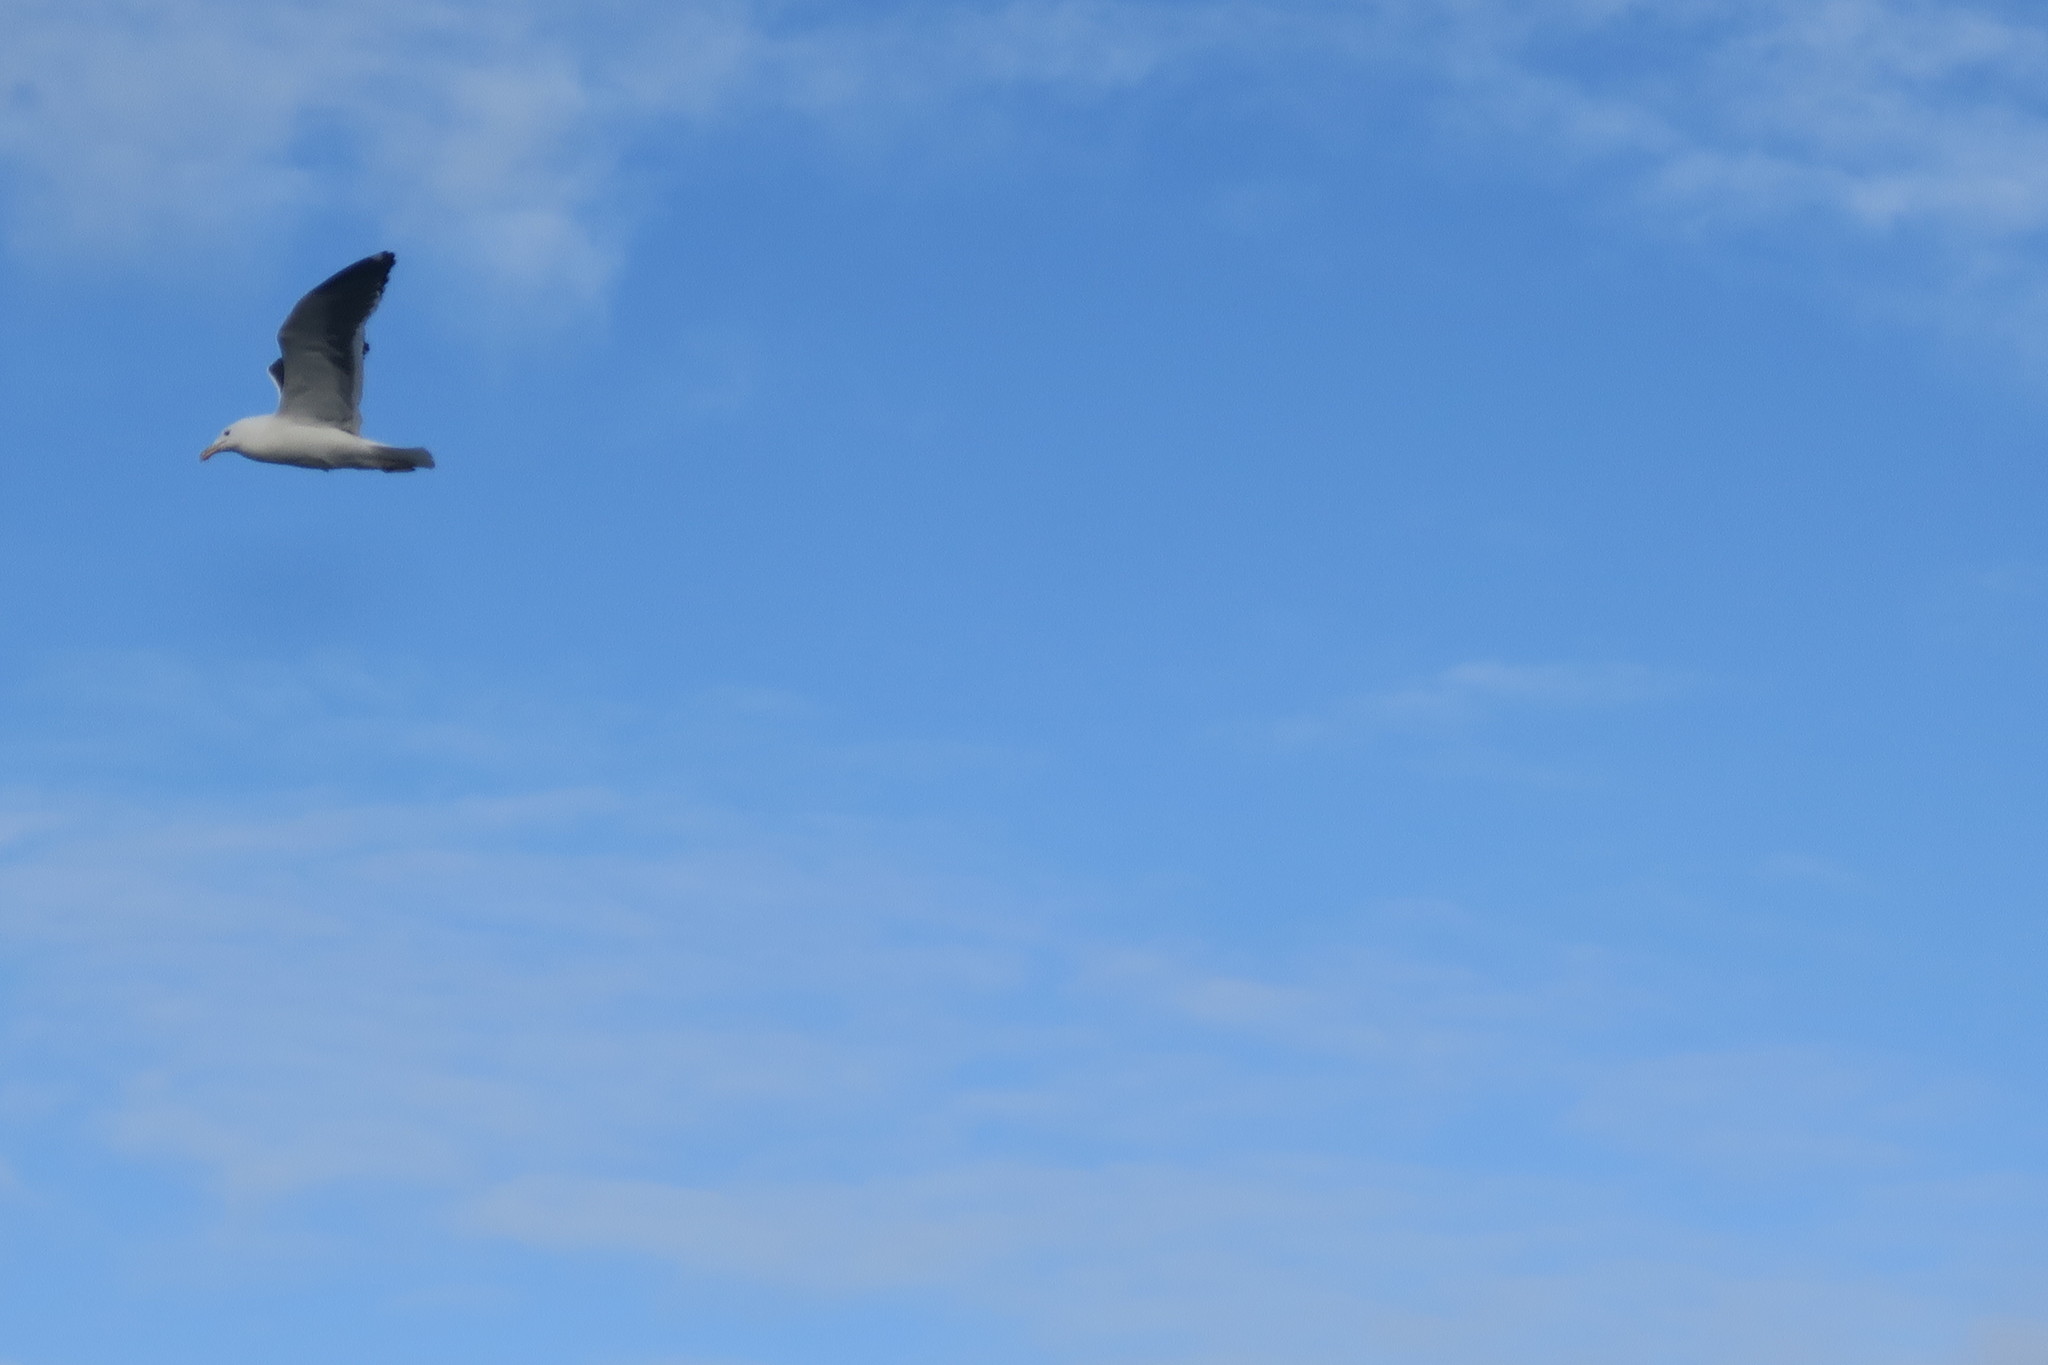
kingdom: Animalia
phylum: Chordata
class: Aves
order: Charadriiformes
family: Laridae
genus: Larus
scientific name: Larus dominicanus
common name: Kelp gull
